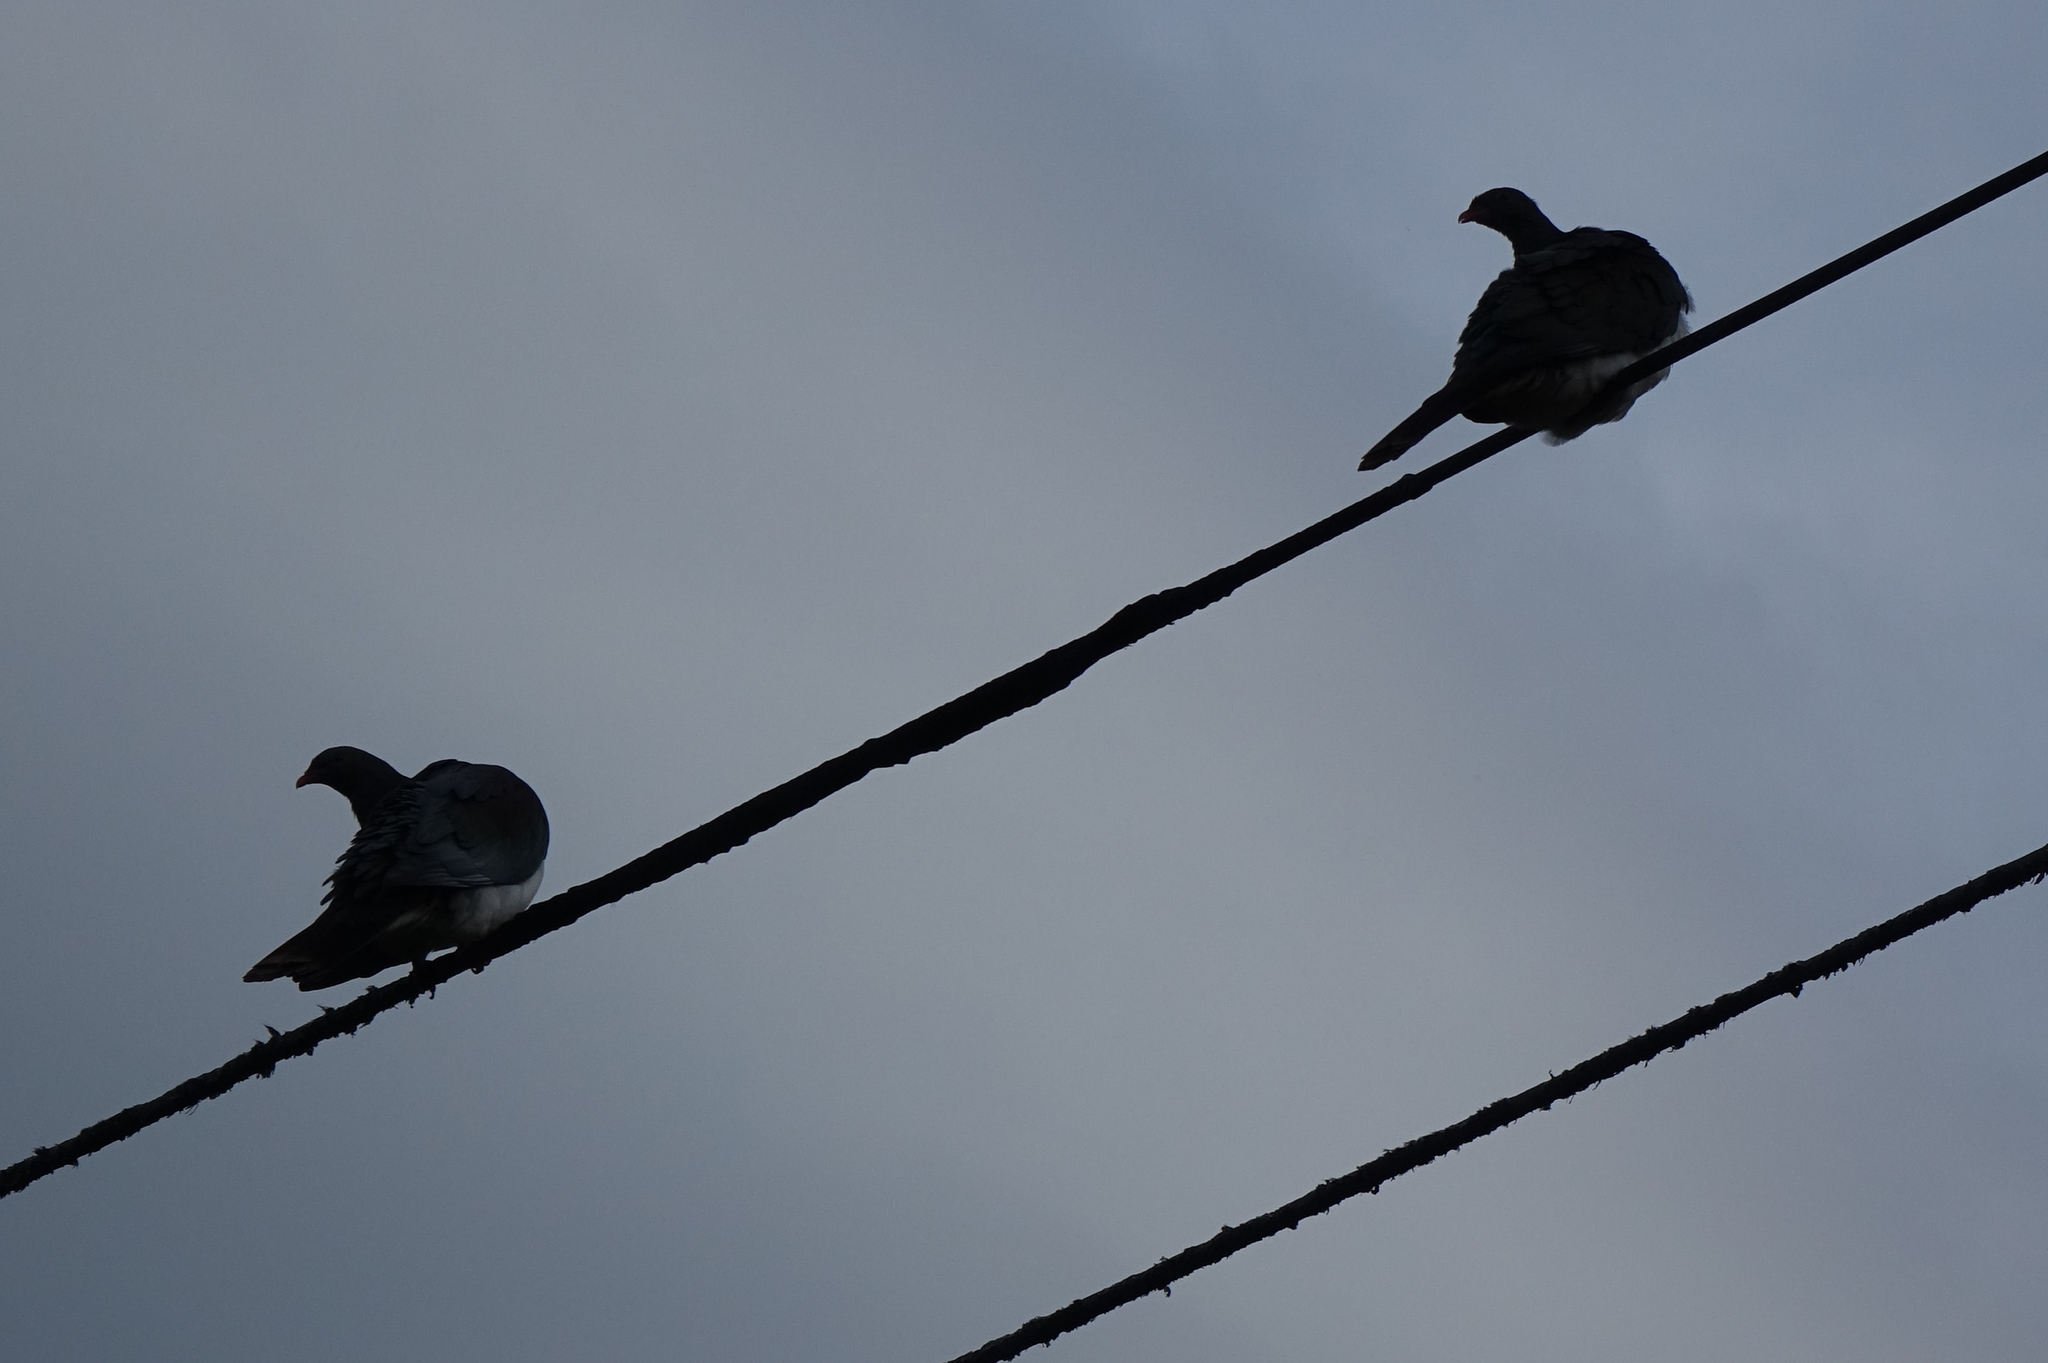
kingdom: Animalia
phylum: Chordata
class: Aves
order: Columbiformes
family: Columbidae
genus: Hemiphaga
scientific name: Hemiphaga novaeseelandiae
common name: New zealand pigeon
